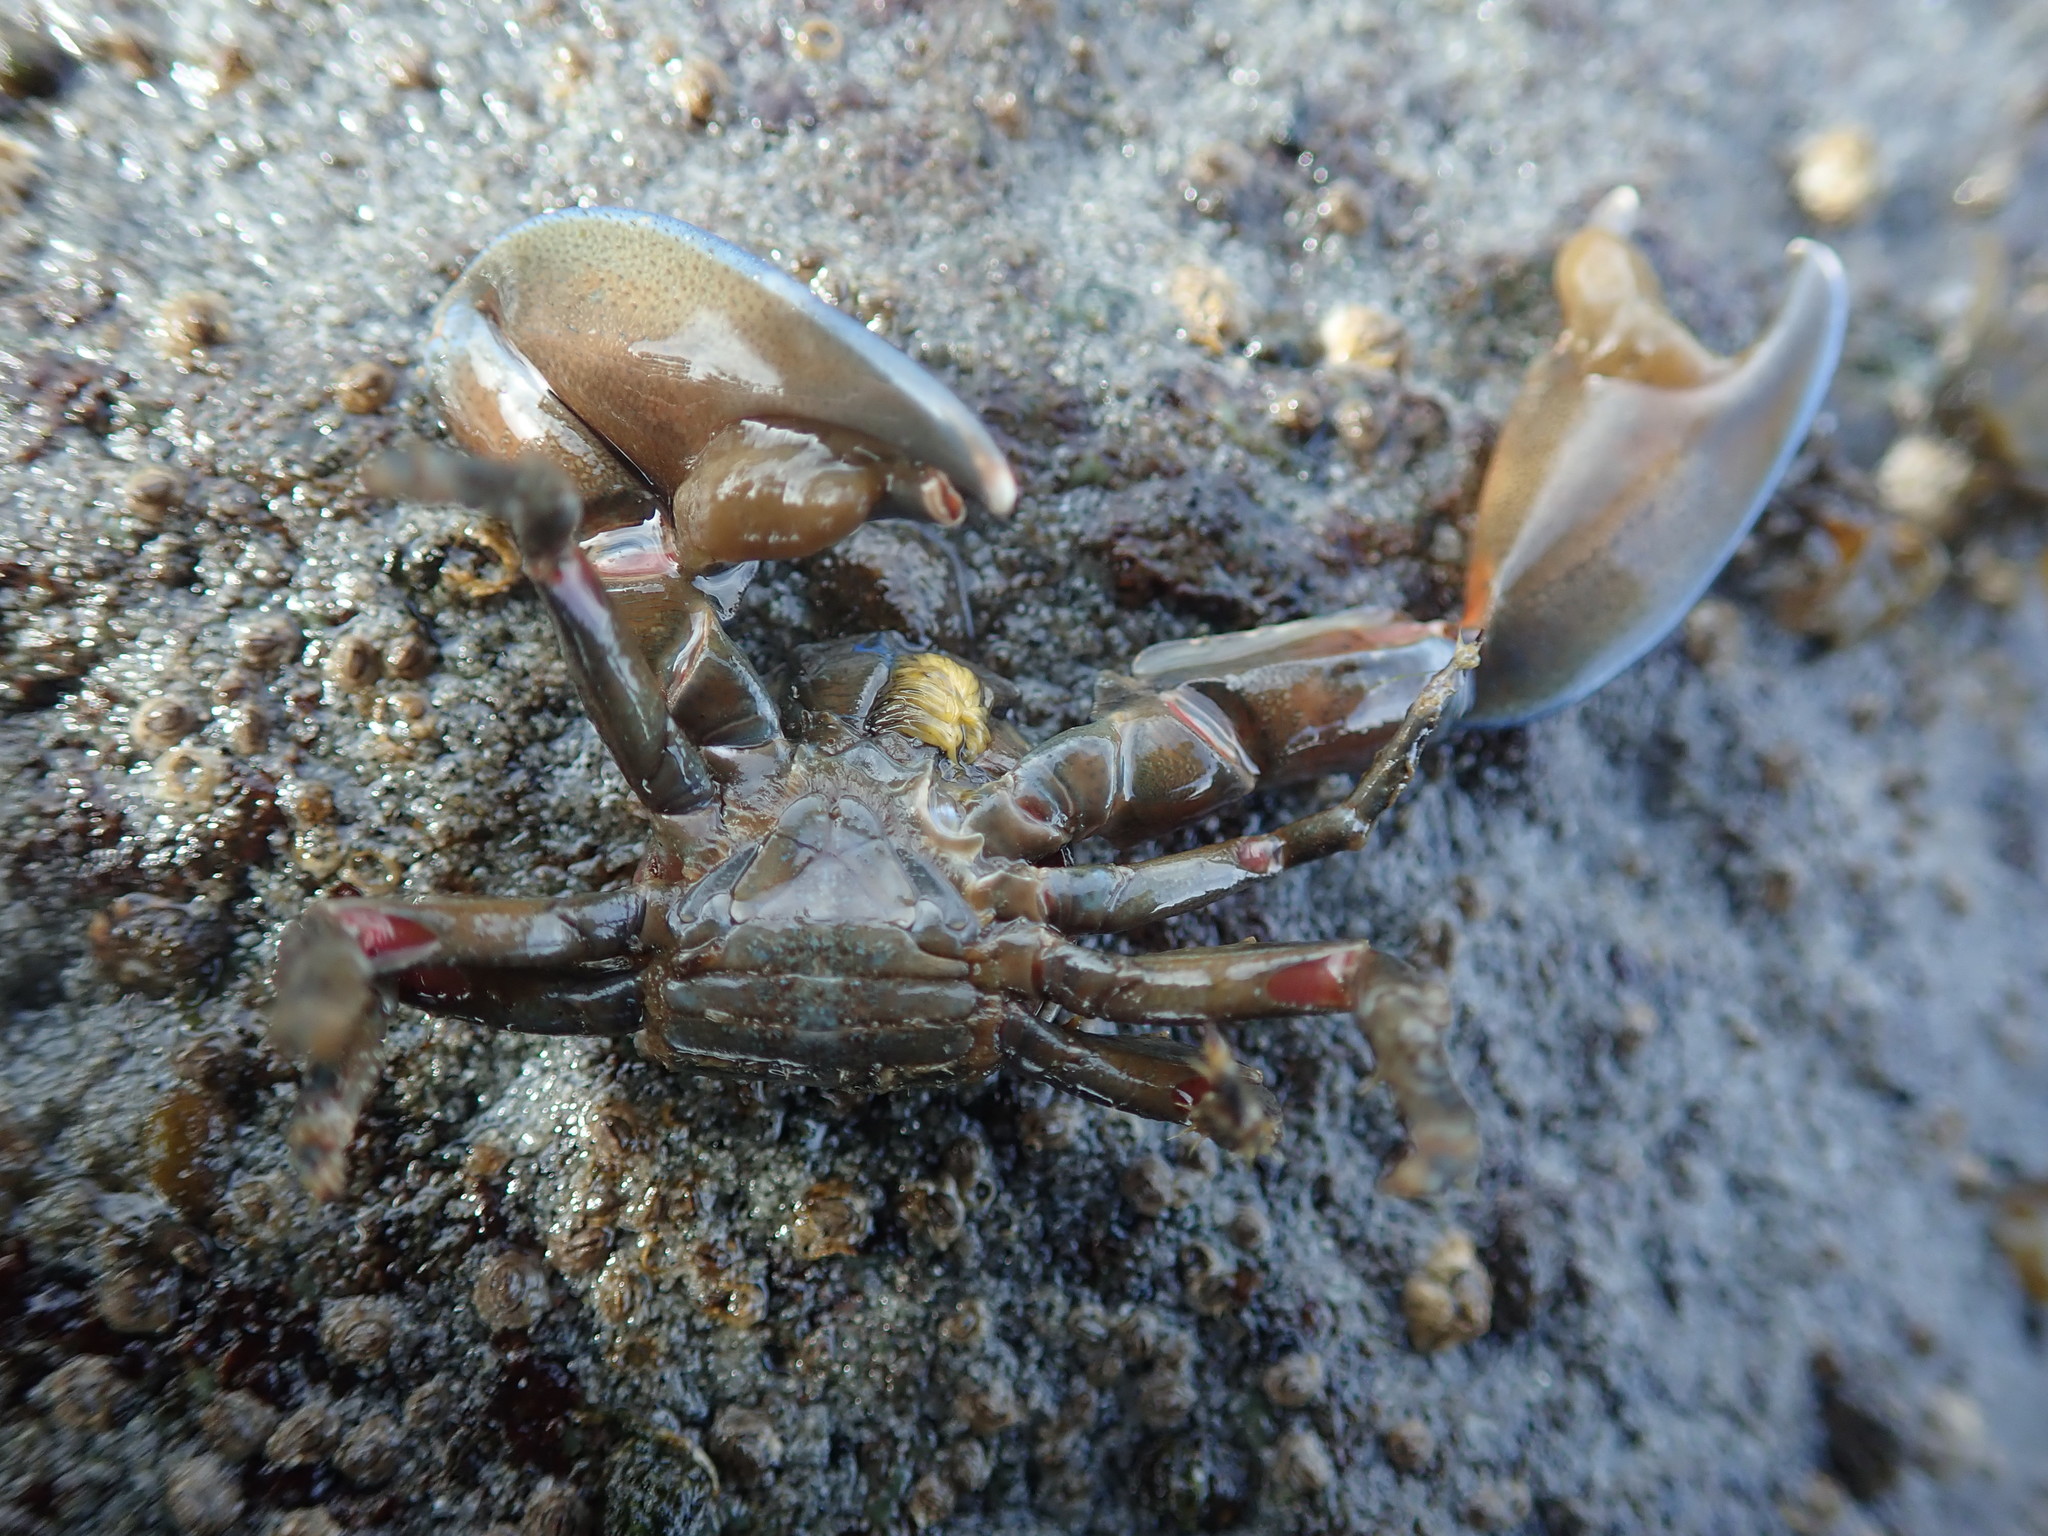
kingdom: Animalia
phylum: Arthropoda
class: Malacostraca
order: Decapoda
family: Porcellanidae
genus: Petrolisthes
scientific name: Petrolisthes eriomerus
